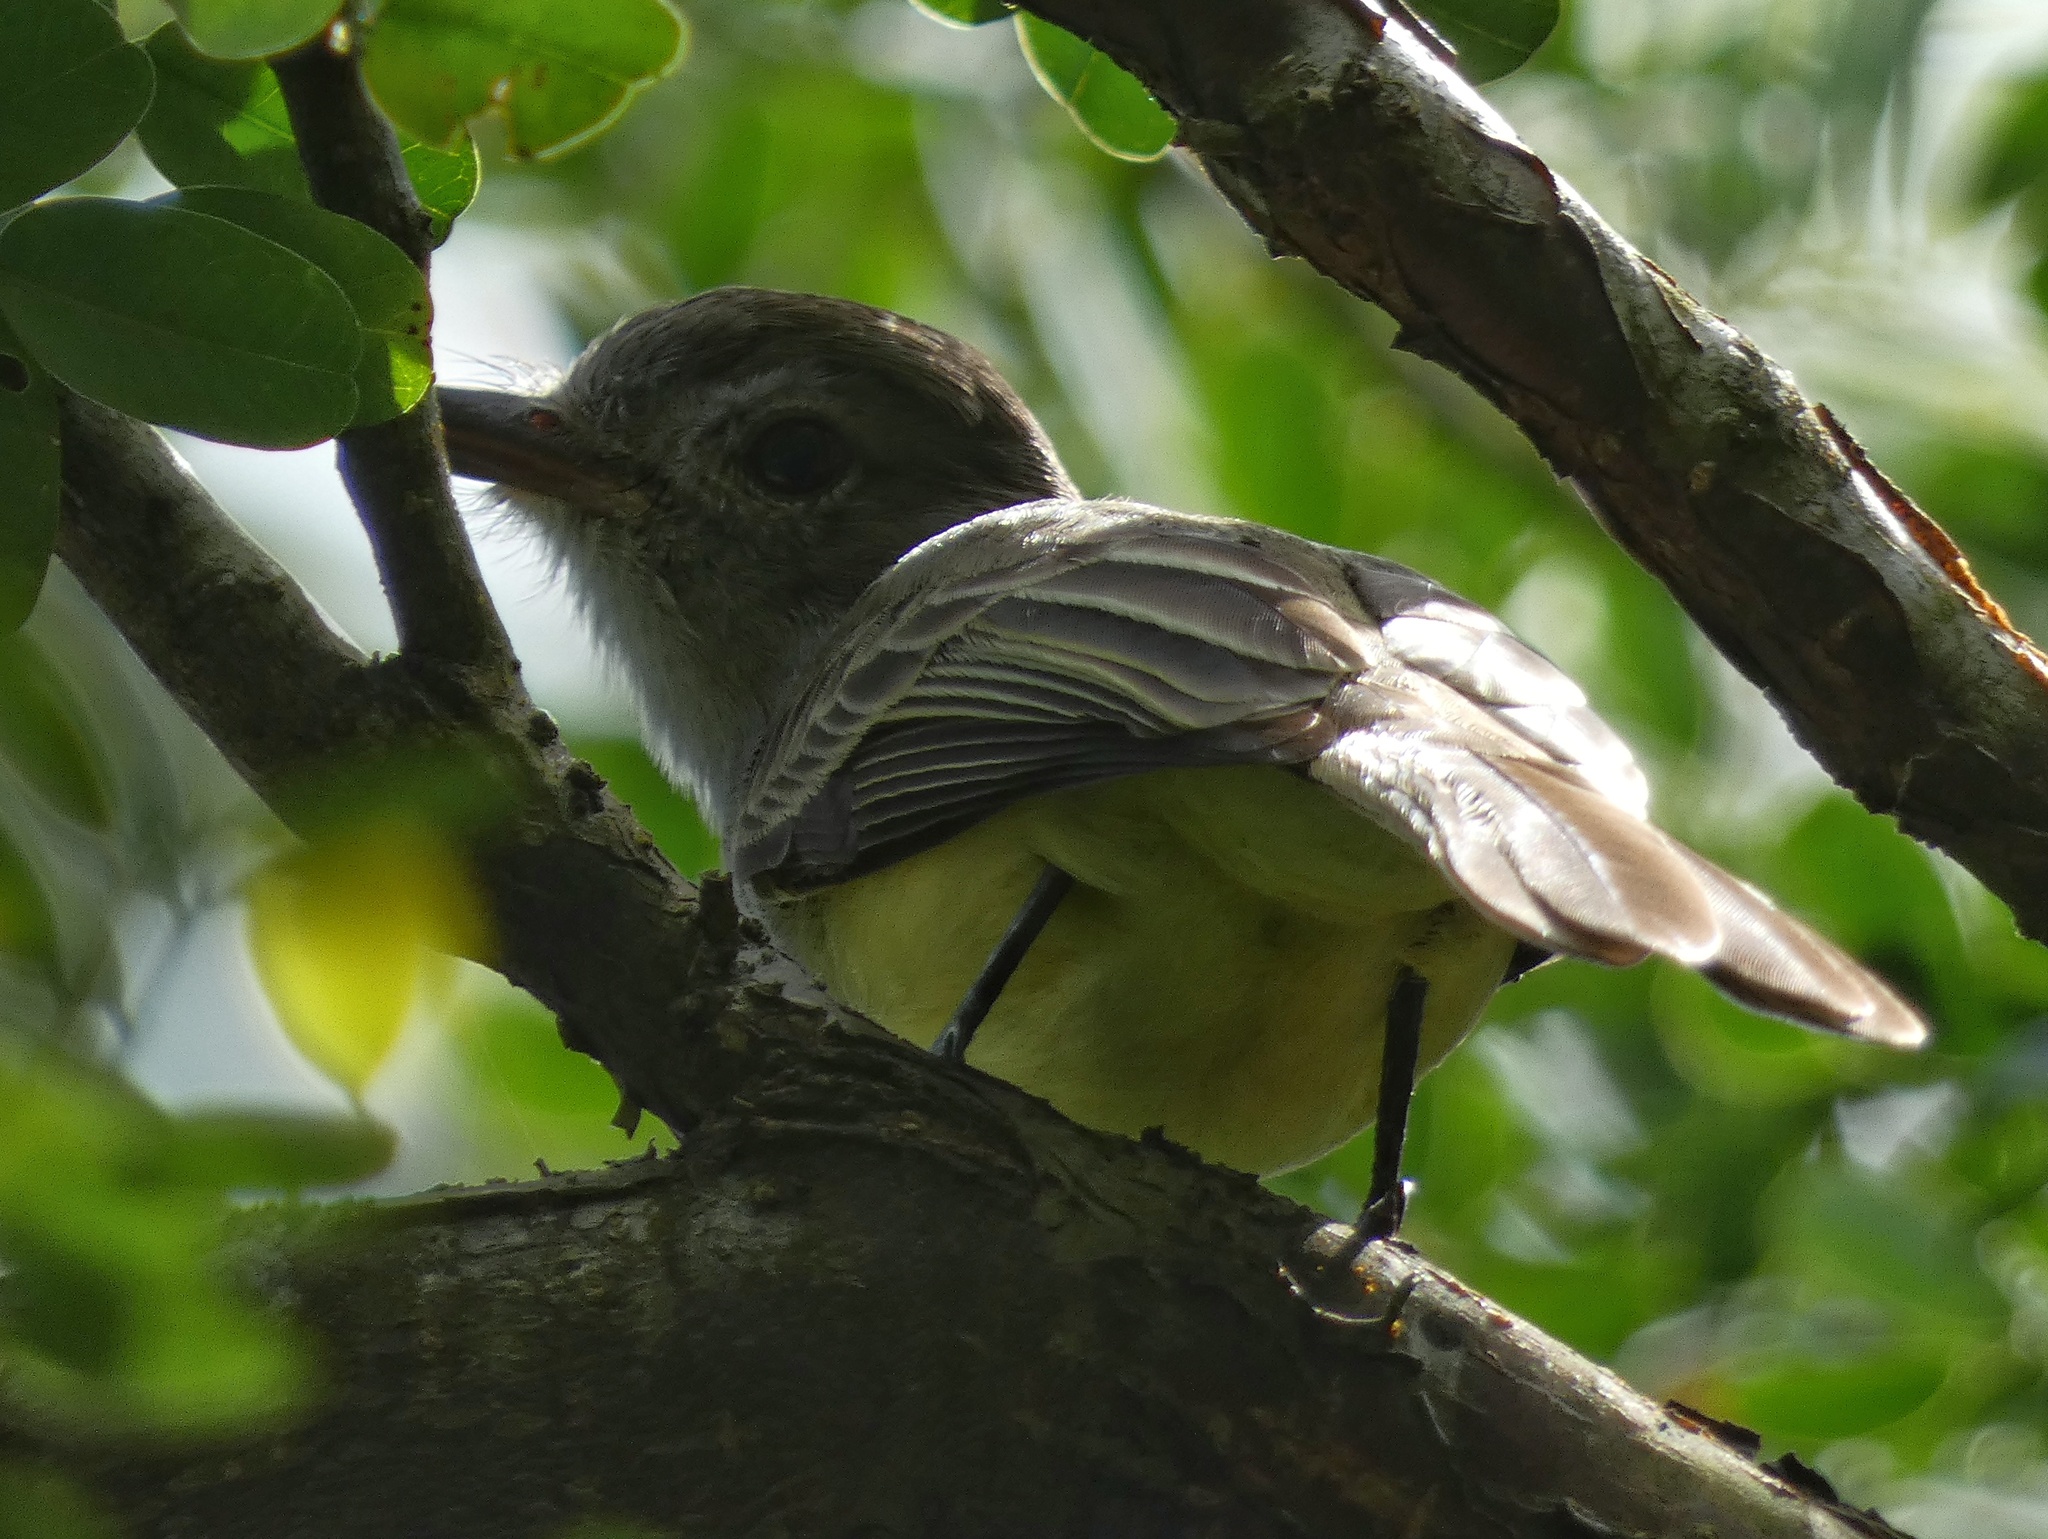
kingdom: Animalia
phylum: Chordata
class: Aves
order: Passeriformes
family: Tyrannidae
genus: Myiarchus
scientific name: Myiarchus panamensis
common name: Panama flycatcher
